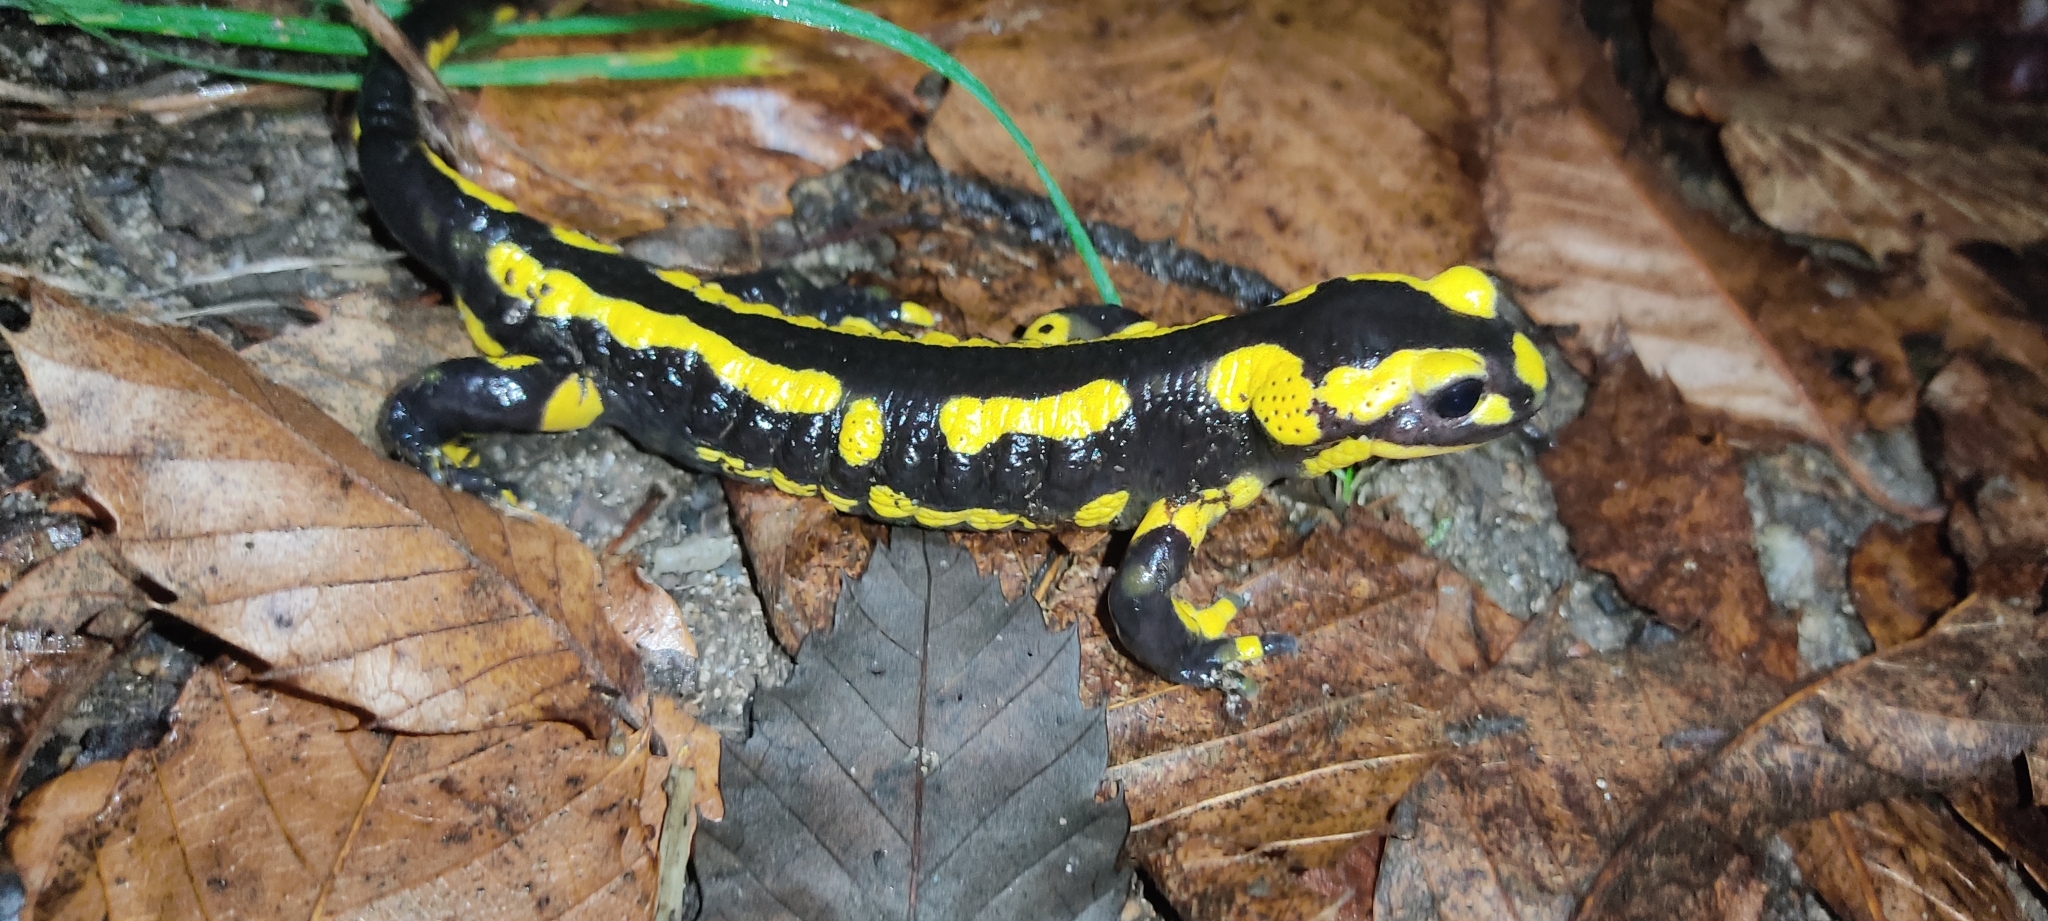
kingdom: Animalia
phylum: Chordata
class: Amphibia
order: Caudata
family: Salamandridae
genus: Salamandra
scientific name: Salamandra salamandra
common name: Fire salamander
